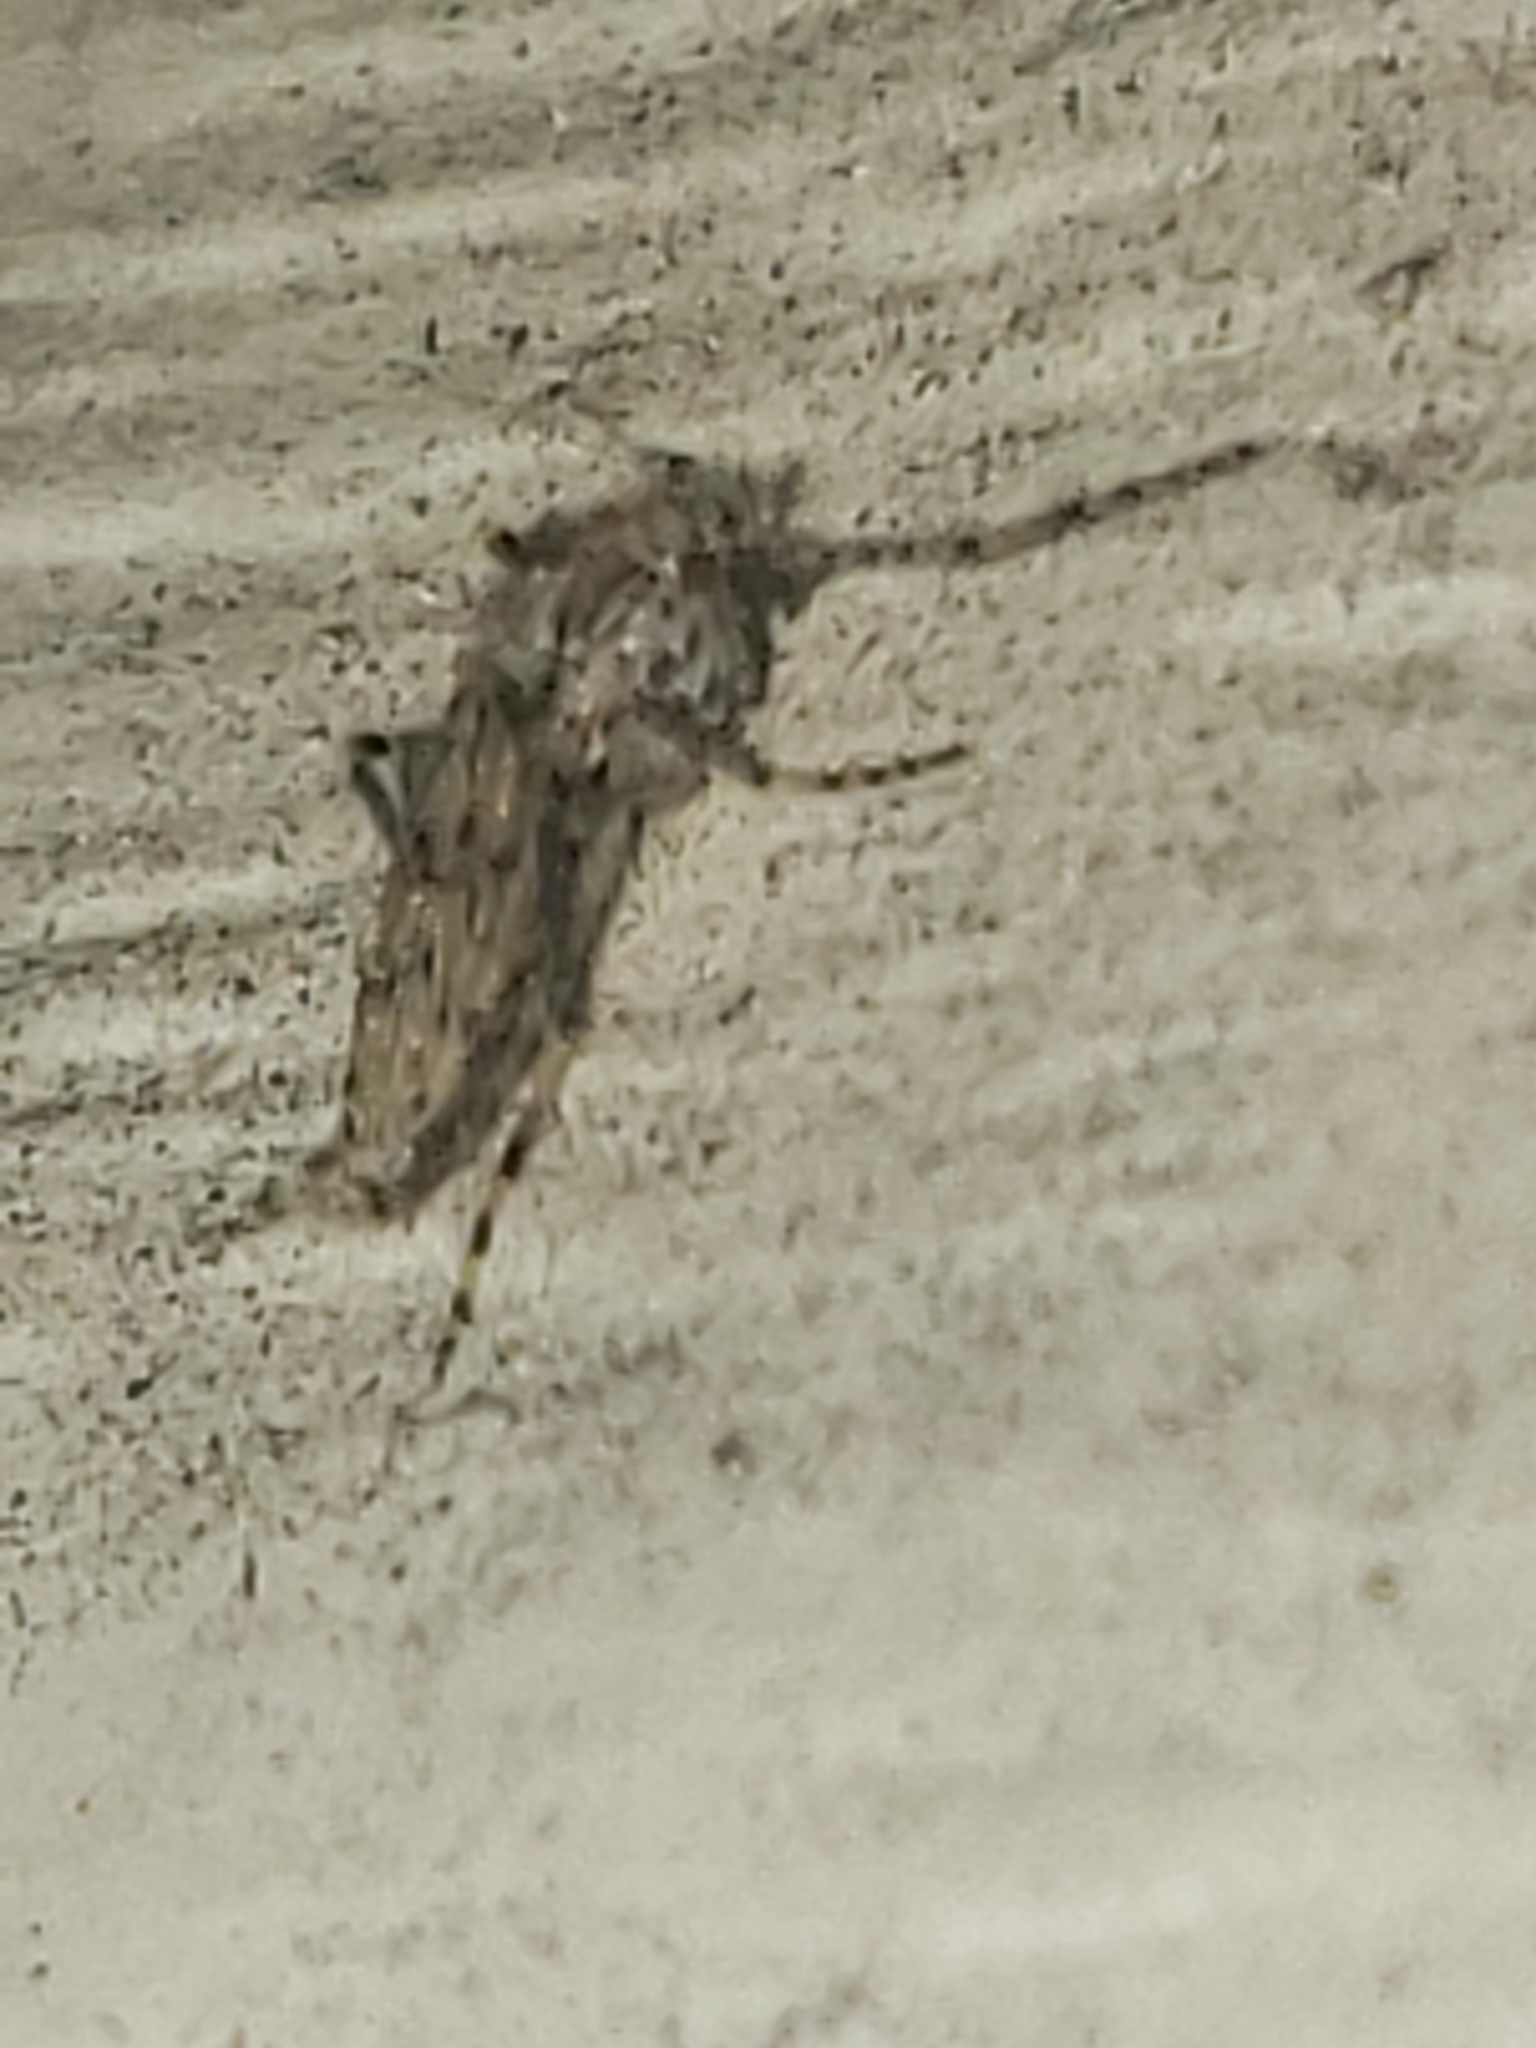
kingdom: Animalia
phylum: Arthropoda
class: Insecta
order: Diptera
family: Chaoboridae
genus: Chaoborus
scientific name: Chaoborus punctipennis
